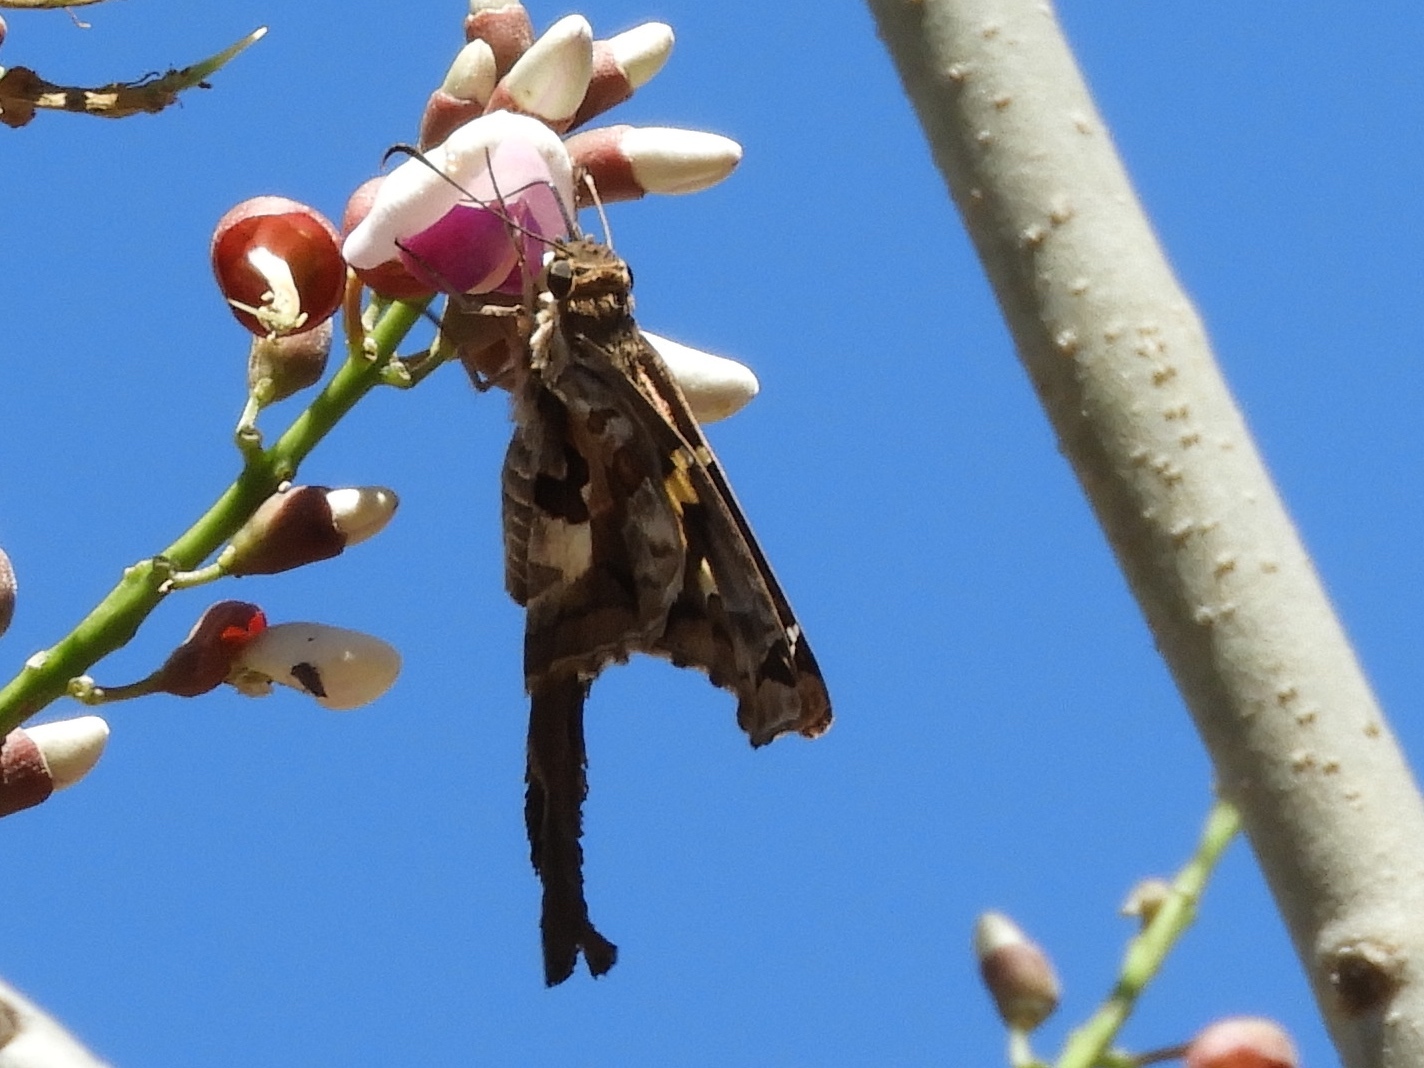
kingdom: Animalia
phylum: Arthropoda
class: Insecta
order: Lepidoptera
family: Hesperiidae
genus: Chioides
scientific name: Chioides zilpa
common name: Zilpa longtail
